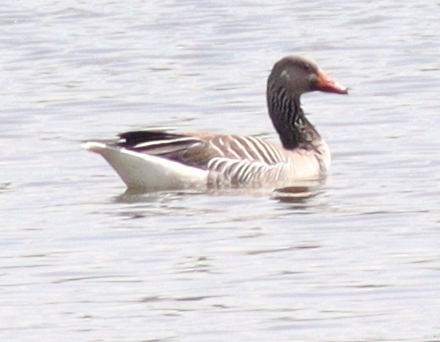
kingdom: Animalia
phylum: Chordata
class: Aves
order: Anseriformes
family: Anatidae
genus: Anser
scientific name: Anser anser
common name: Greylag goose
